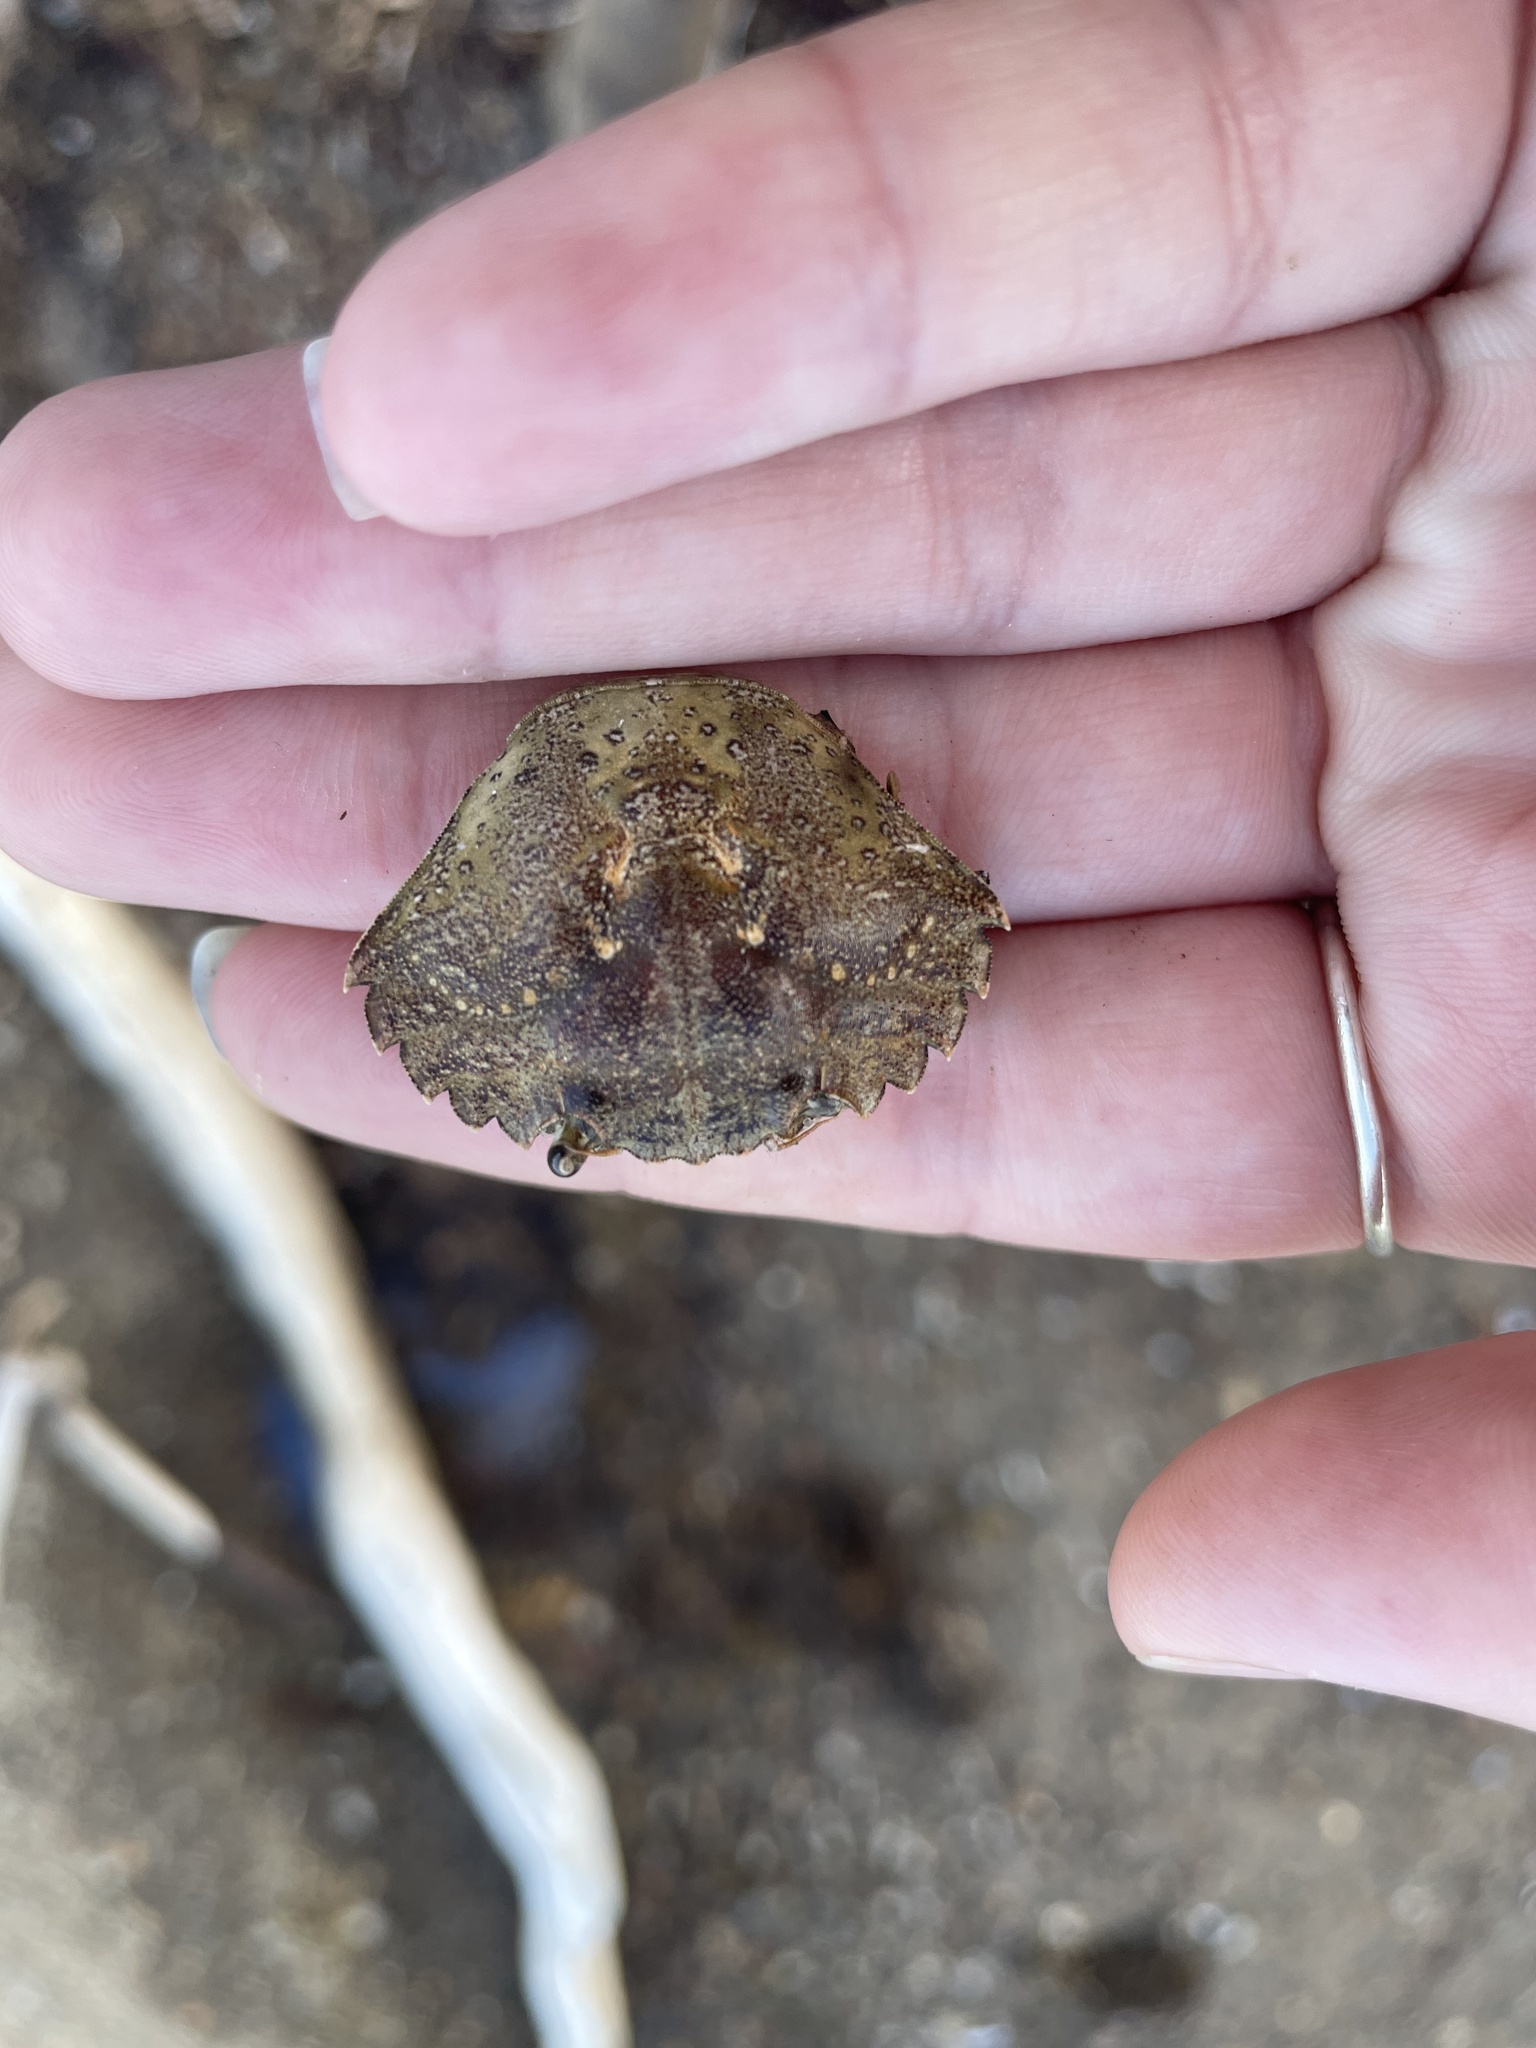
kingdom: Animalia
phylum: Arthropoda
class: Malacostraca
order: Decapoda
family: Carcinidae
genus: Carcinus
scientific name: Carcinus maenas
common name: European green crab
